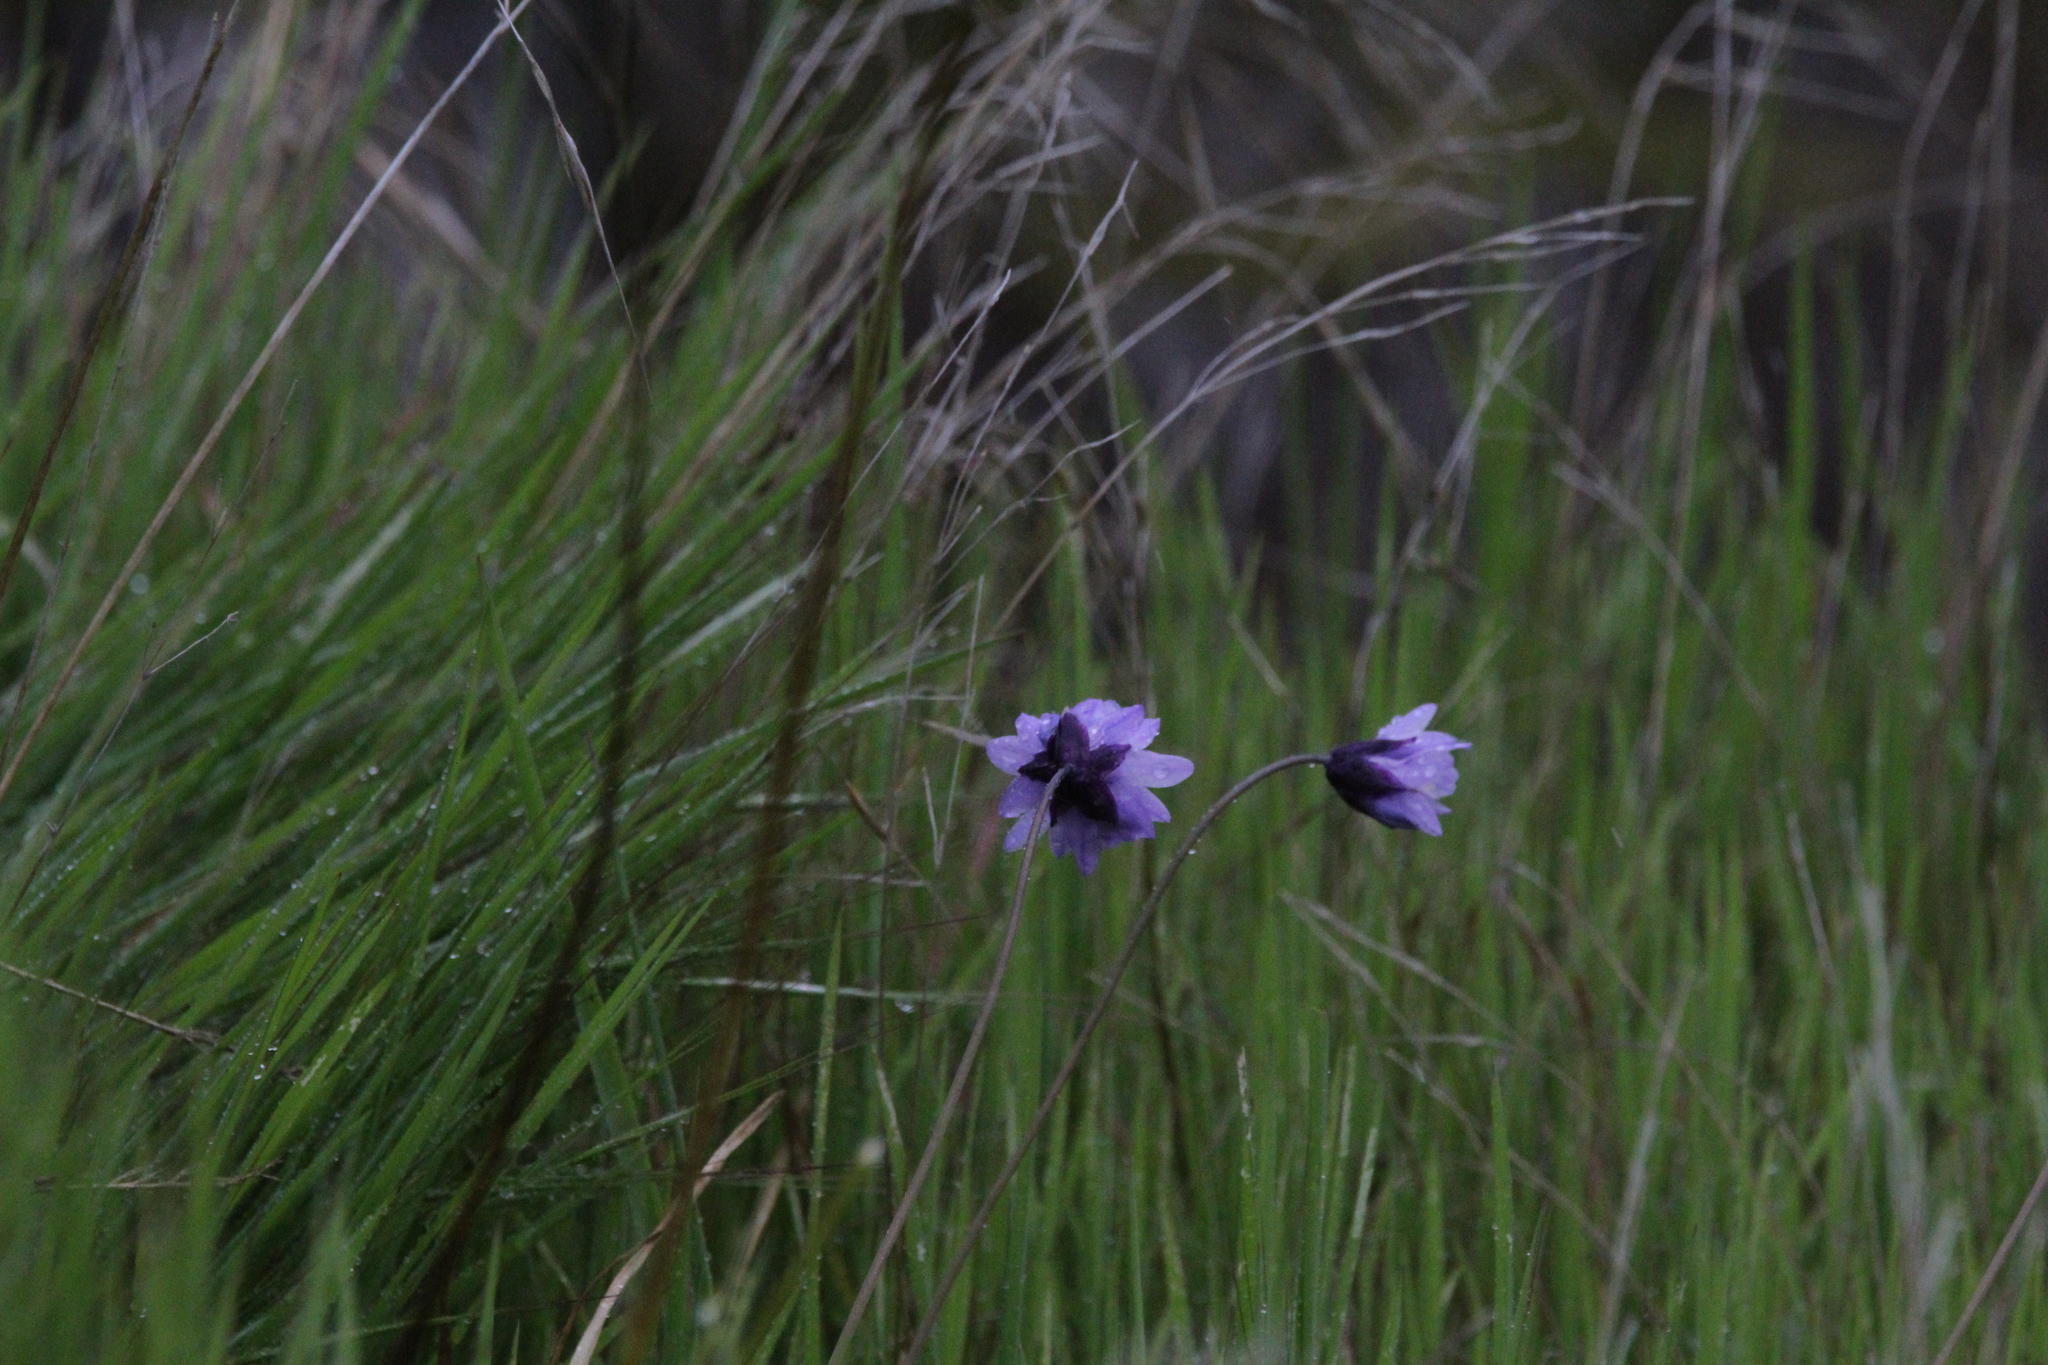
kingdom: Plantae
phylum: Tracheophyta
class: Liliopsida
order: Asparagales
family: Asparagaceae
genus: Dipterostemon
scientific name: Dipterostemon capitatus
